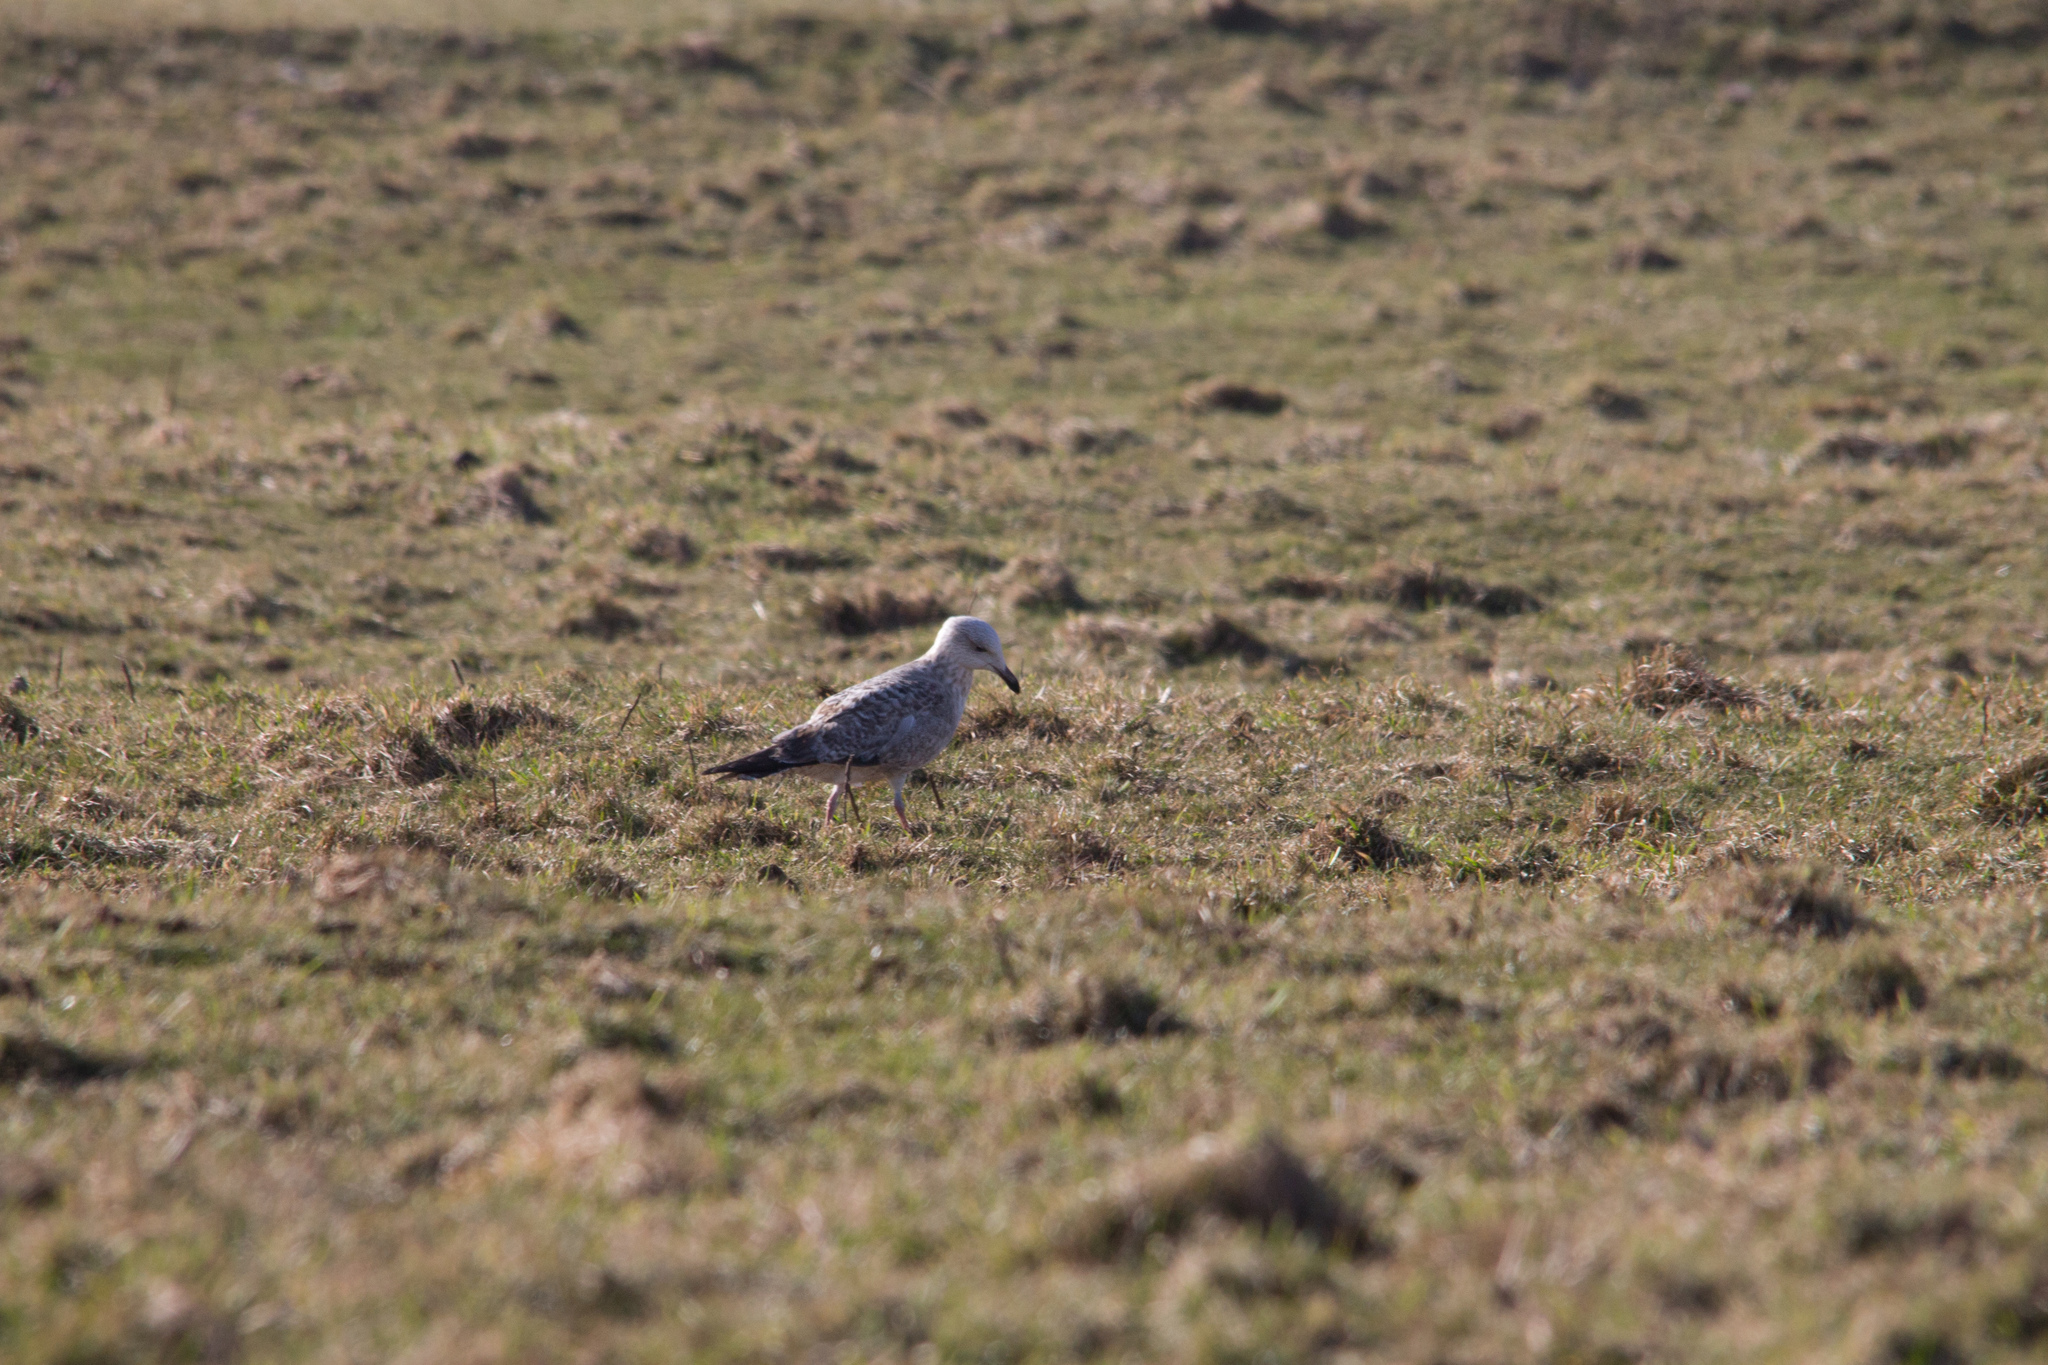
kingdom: Animalia
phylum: Chordata
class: Aves
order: Charadriiformes
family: Laridae
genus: Larus
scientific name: Larus argentatus
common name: Herring gull
